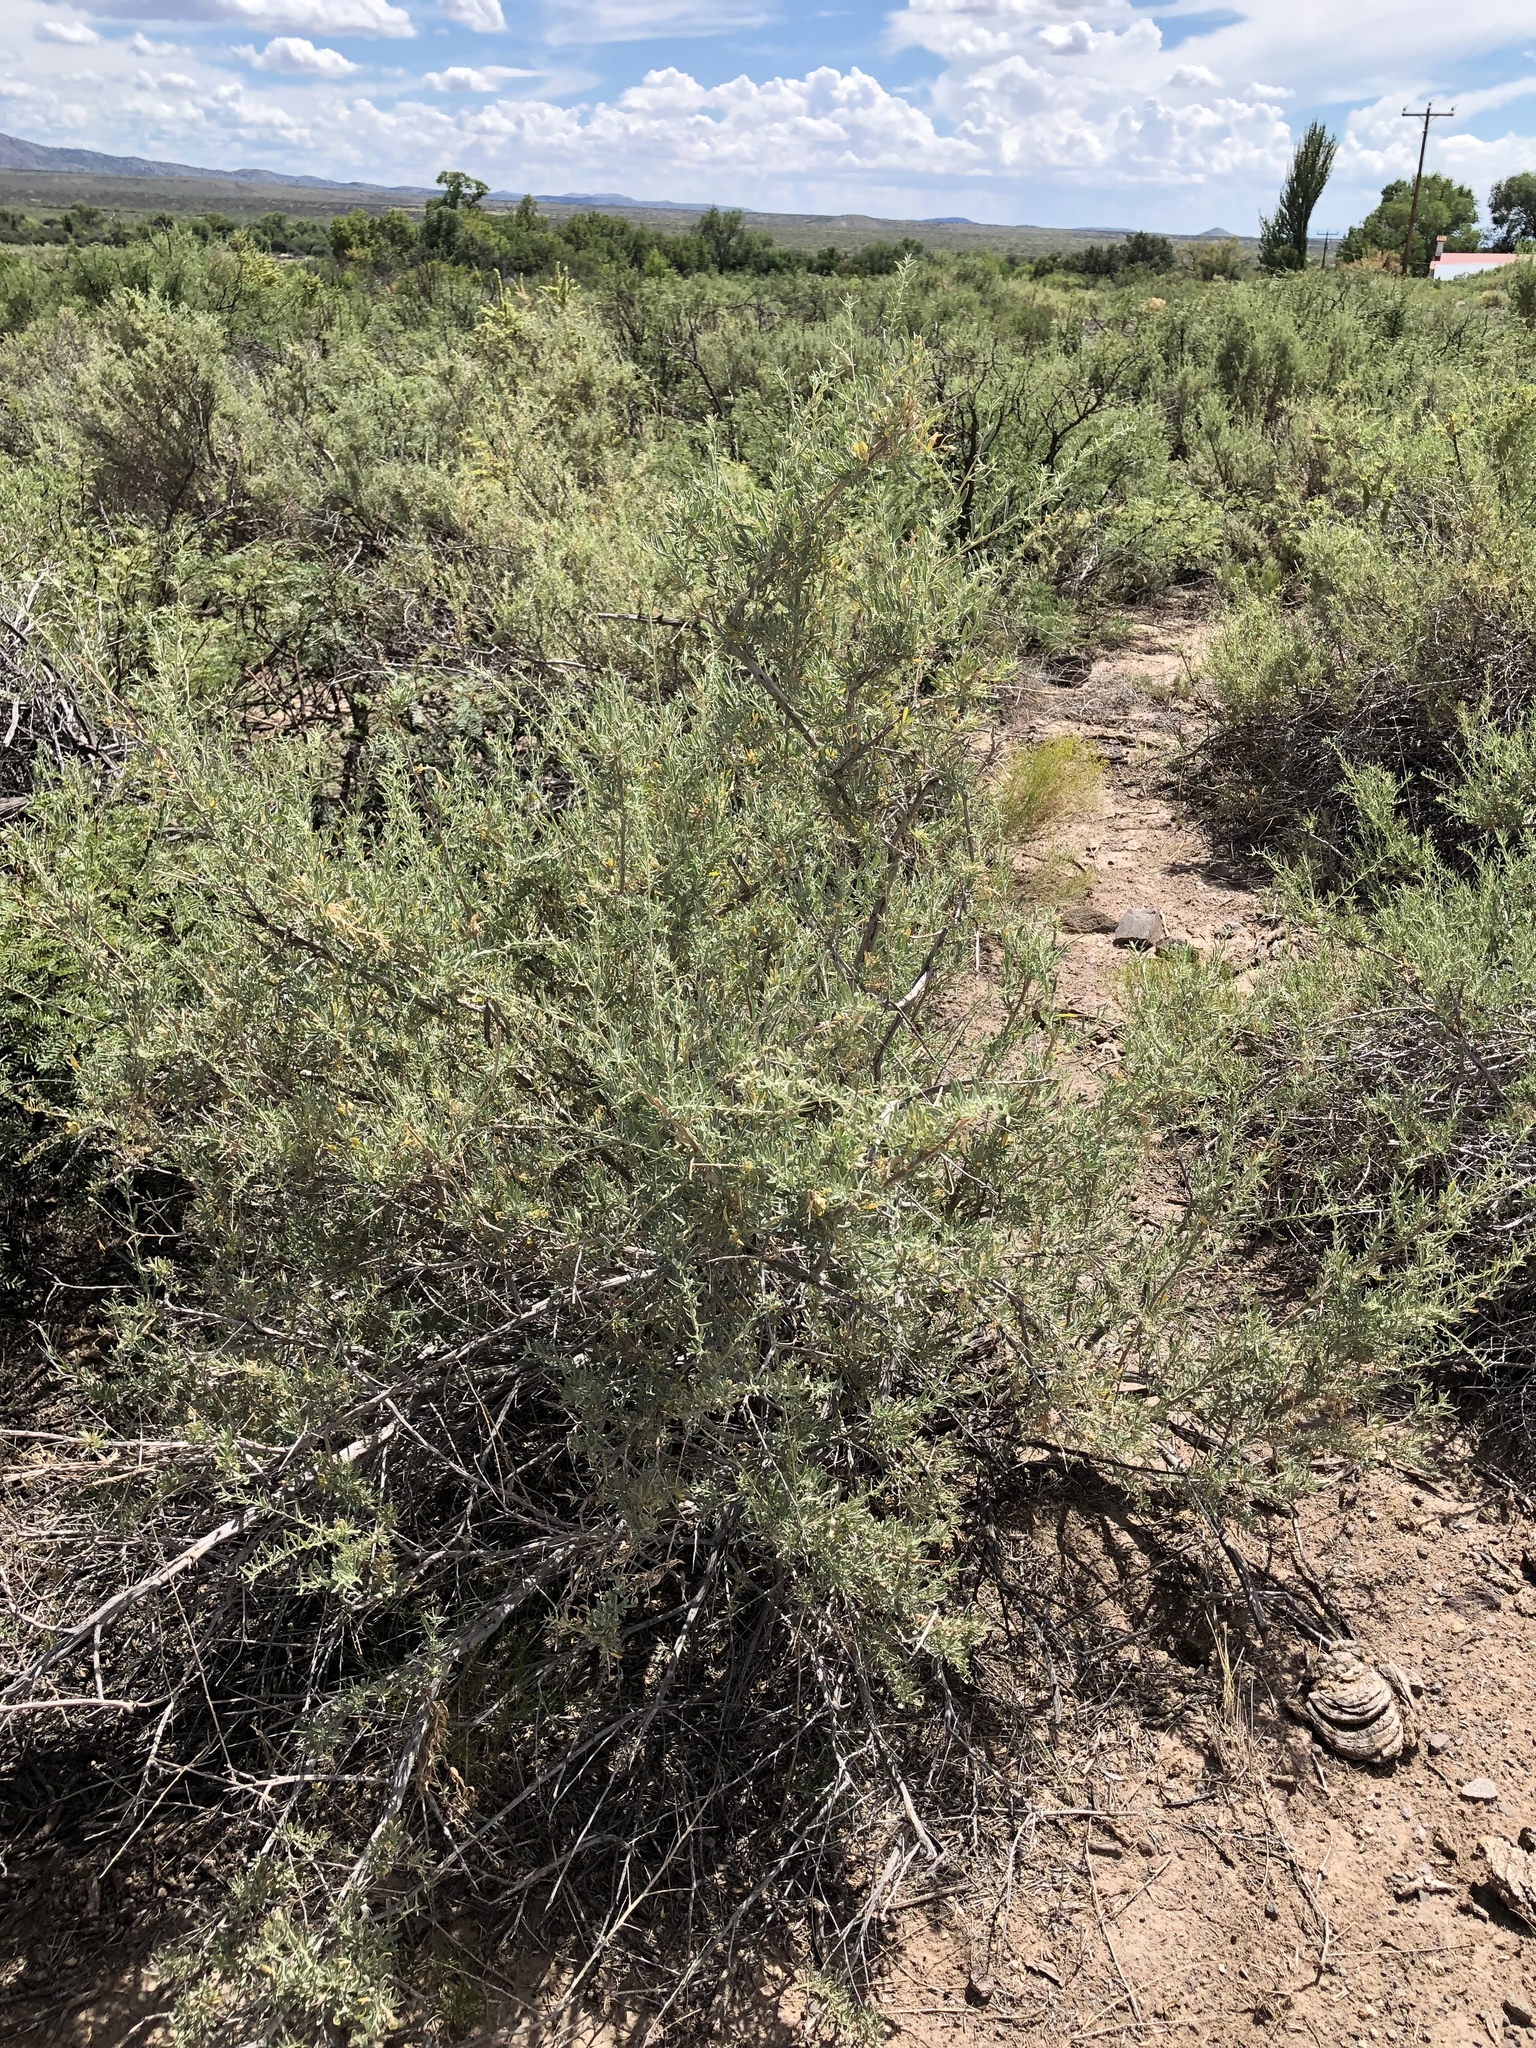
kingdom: Plantae
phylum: Tracheophyta
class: Magnoliopsida
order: Caryophyllales
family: Amaranthaceae
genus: Atriplex
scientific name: Atriplex canescens
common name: Four-wing saltbush
